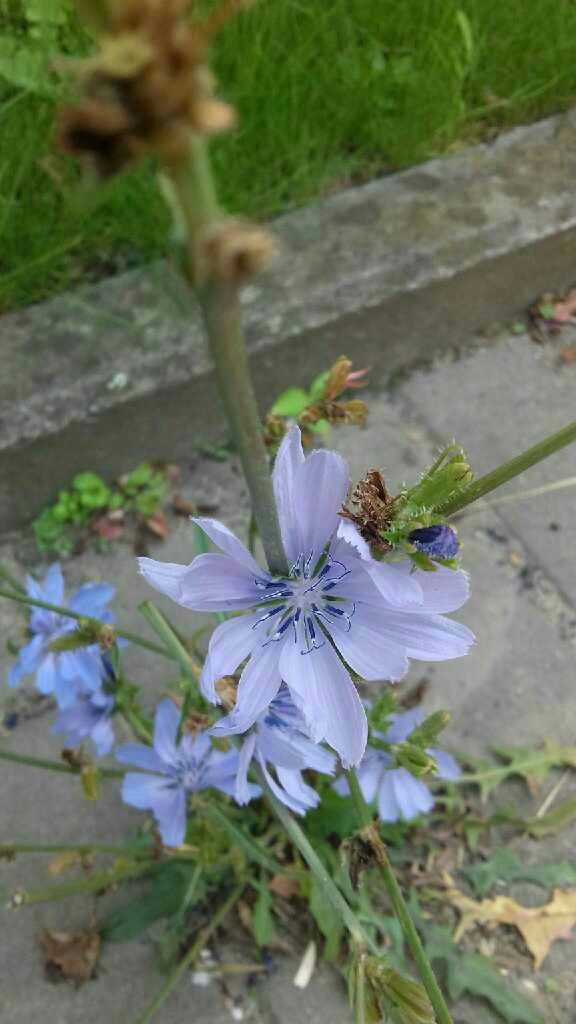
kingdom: Plantae
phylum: Tracheophyta
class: Magnoliopsida
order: Asterales
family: Asteraceae
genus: Cichorium
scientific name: Cichorium intybus
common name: Chicory
